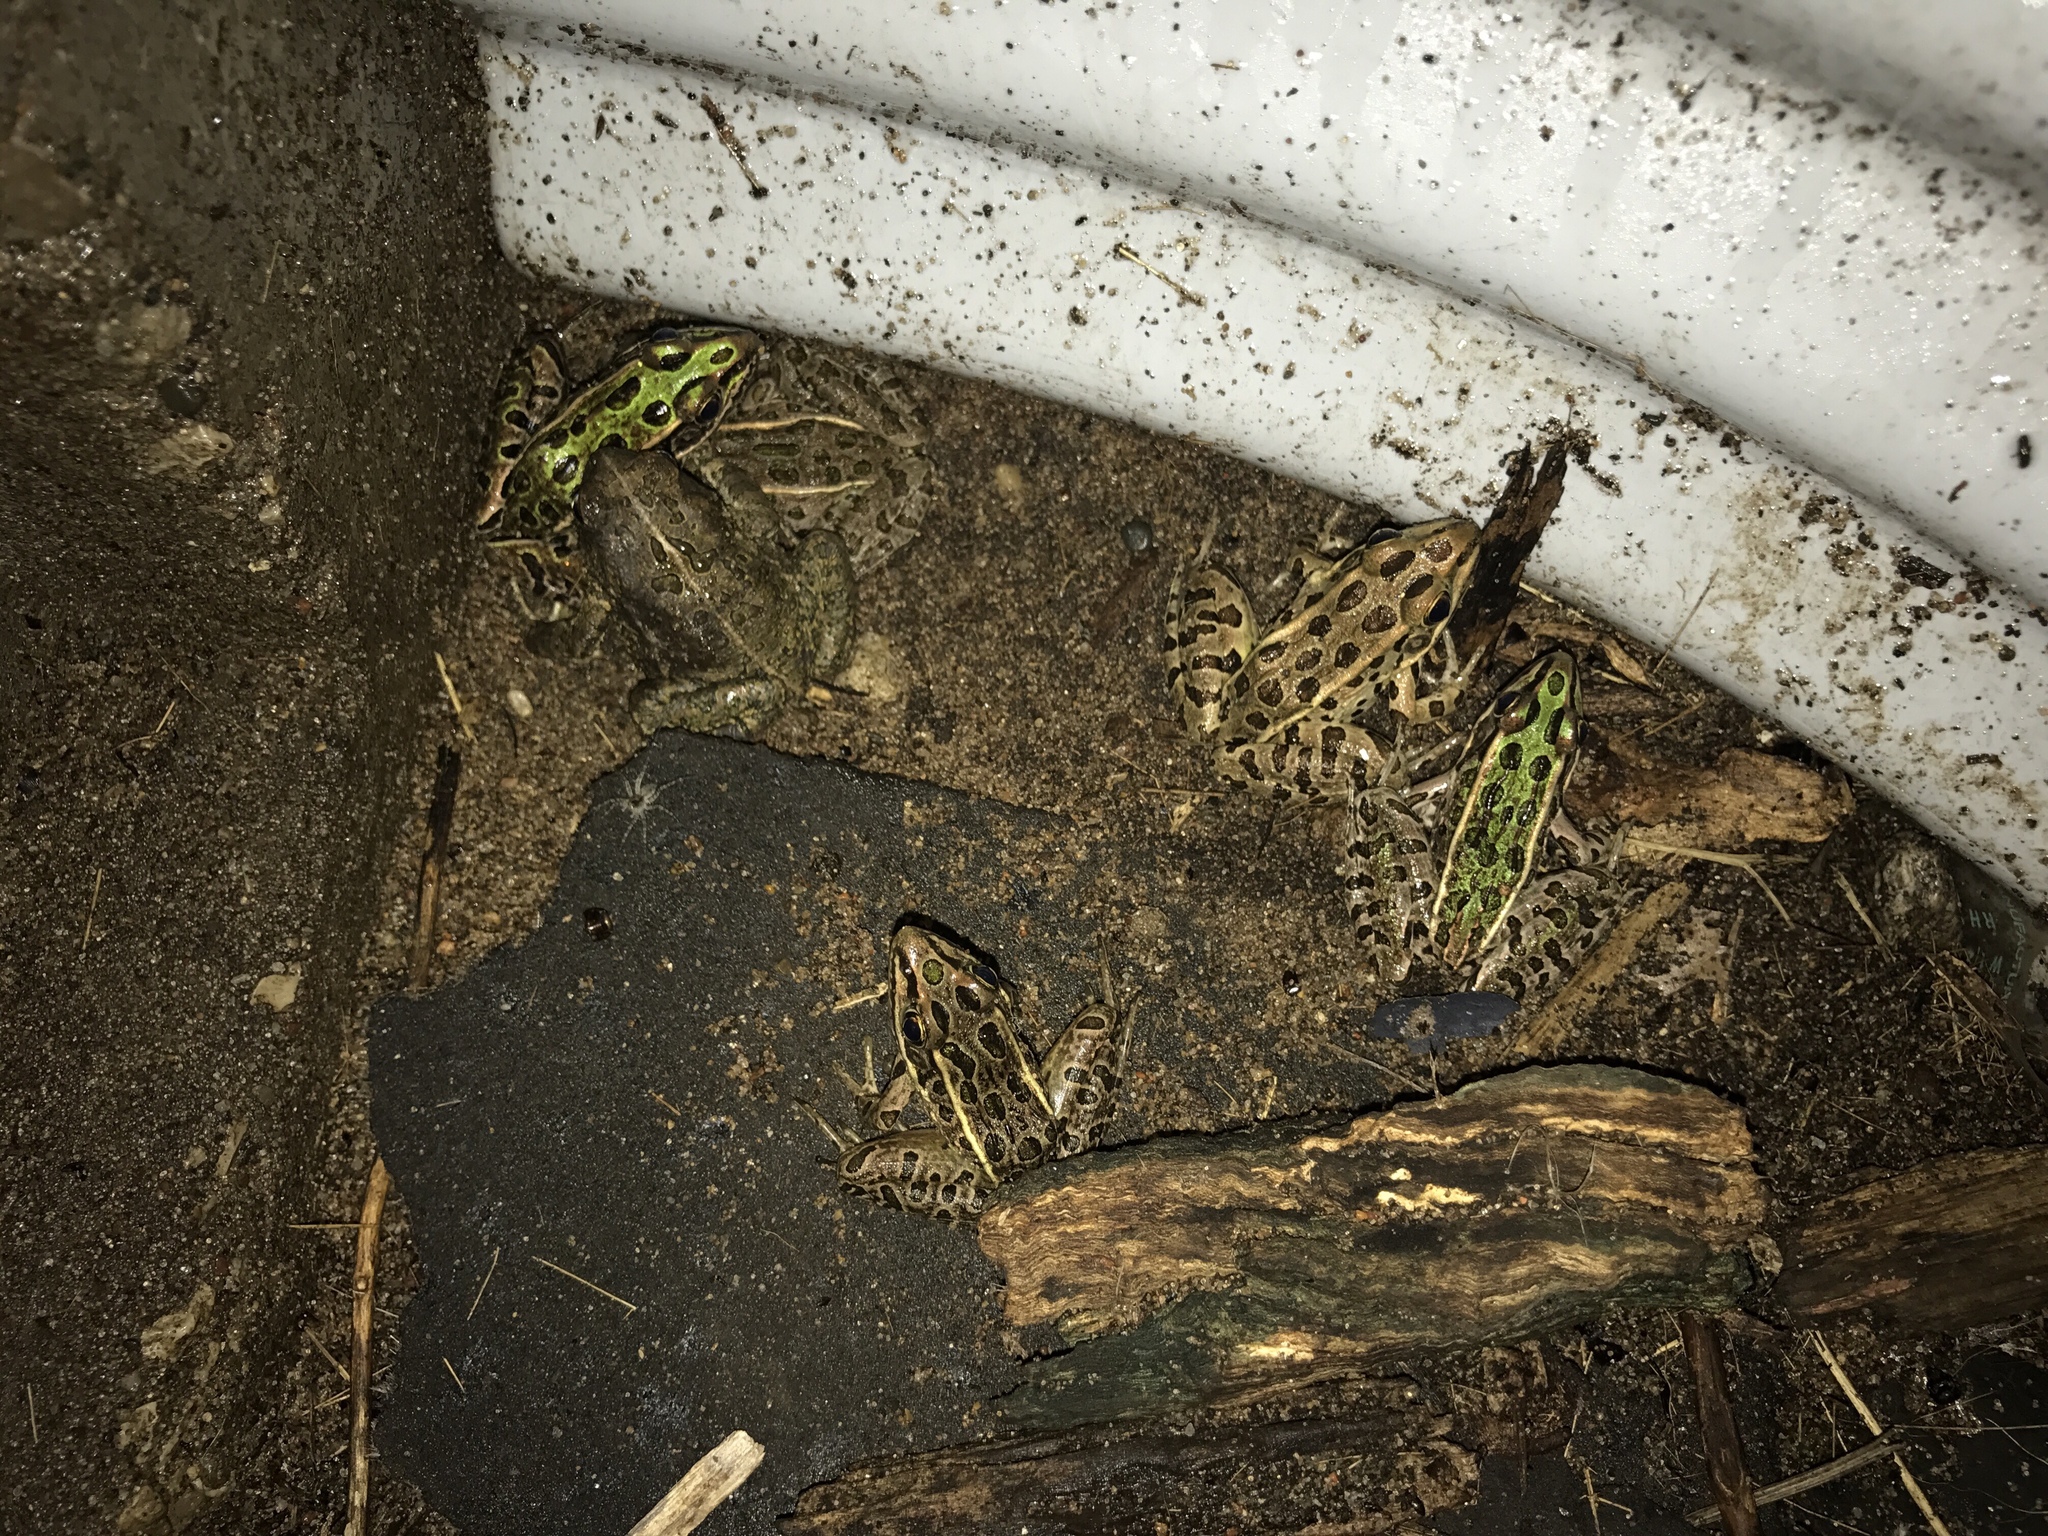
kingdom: Animalia
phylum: Chordata
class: Amphibia
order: Anura
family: Ranidae
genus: Lithobates
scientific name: Lithobates pipiens
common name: Northern leopard frog
